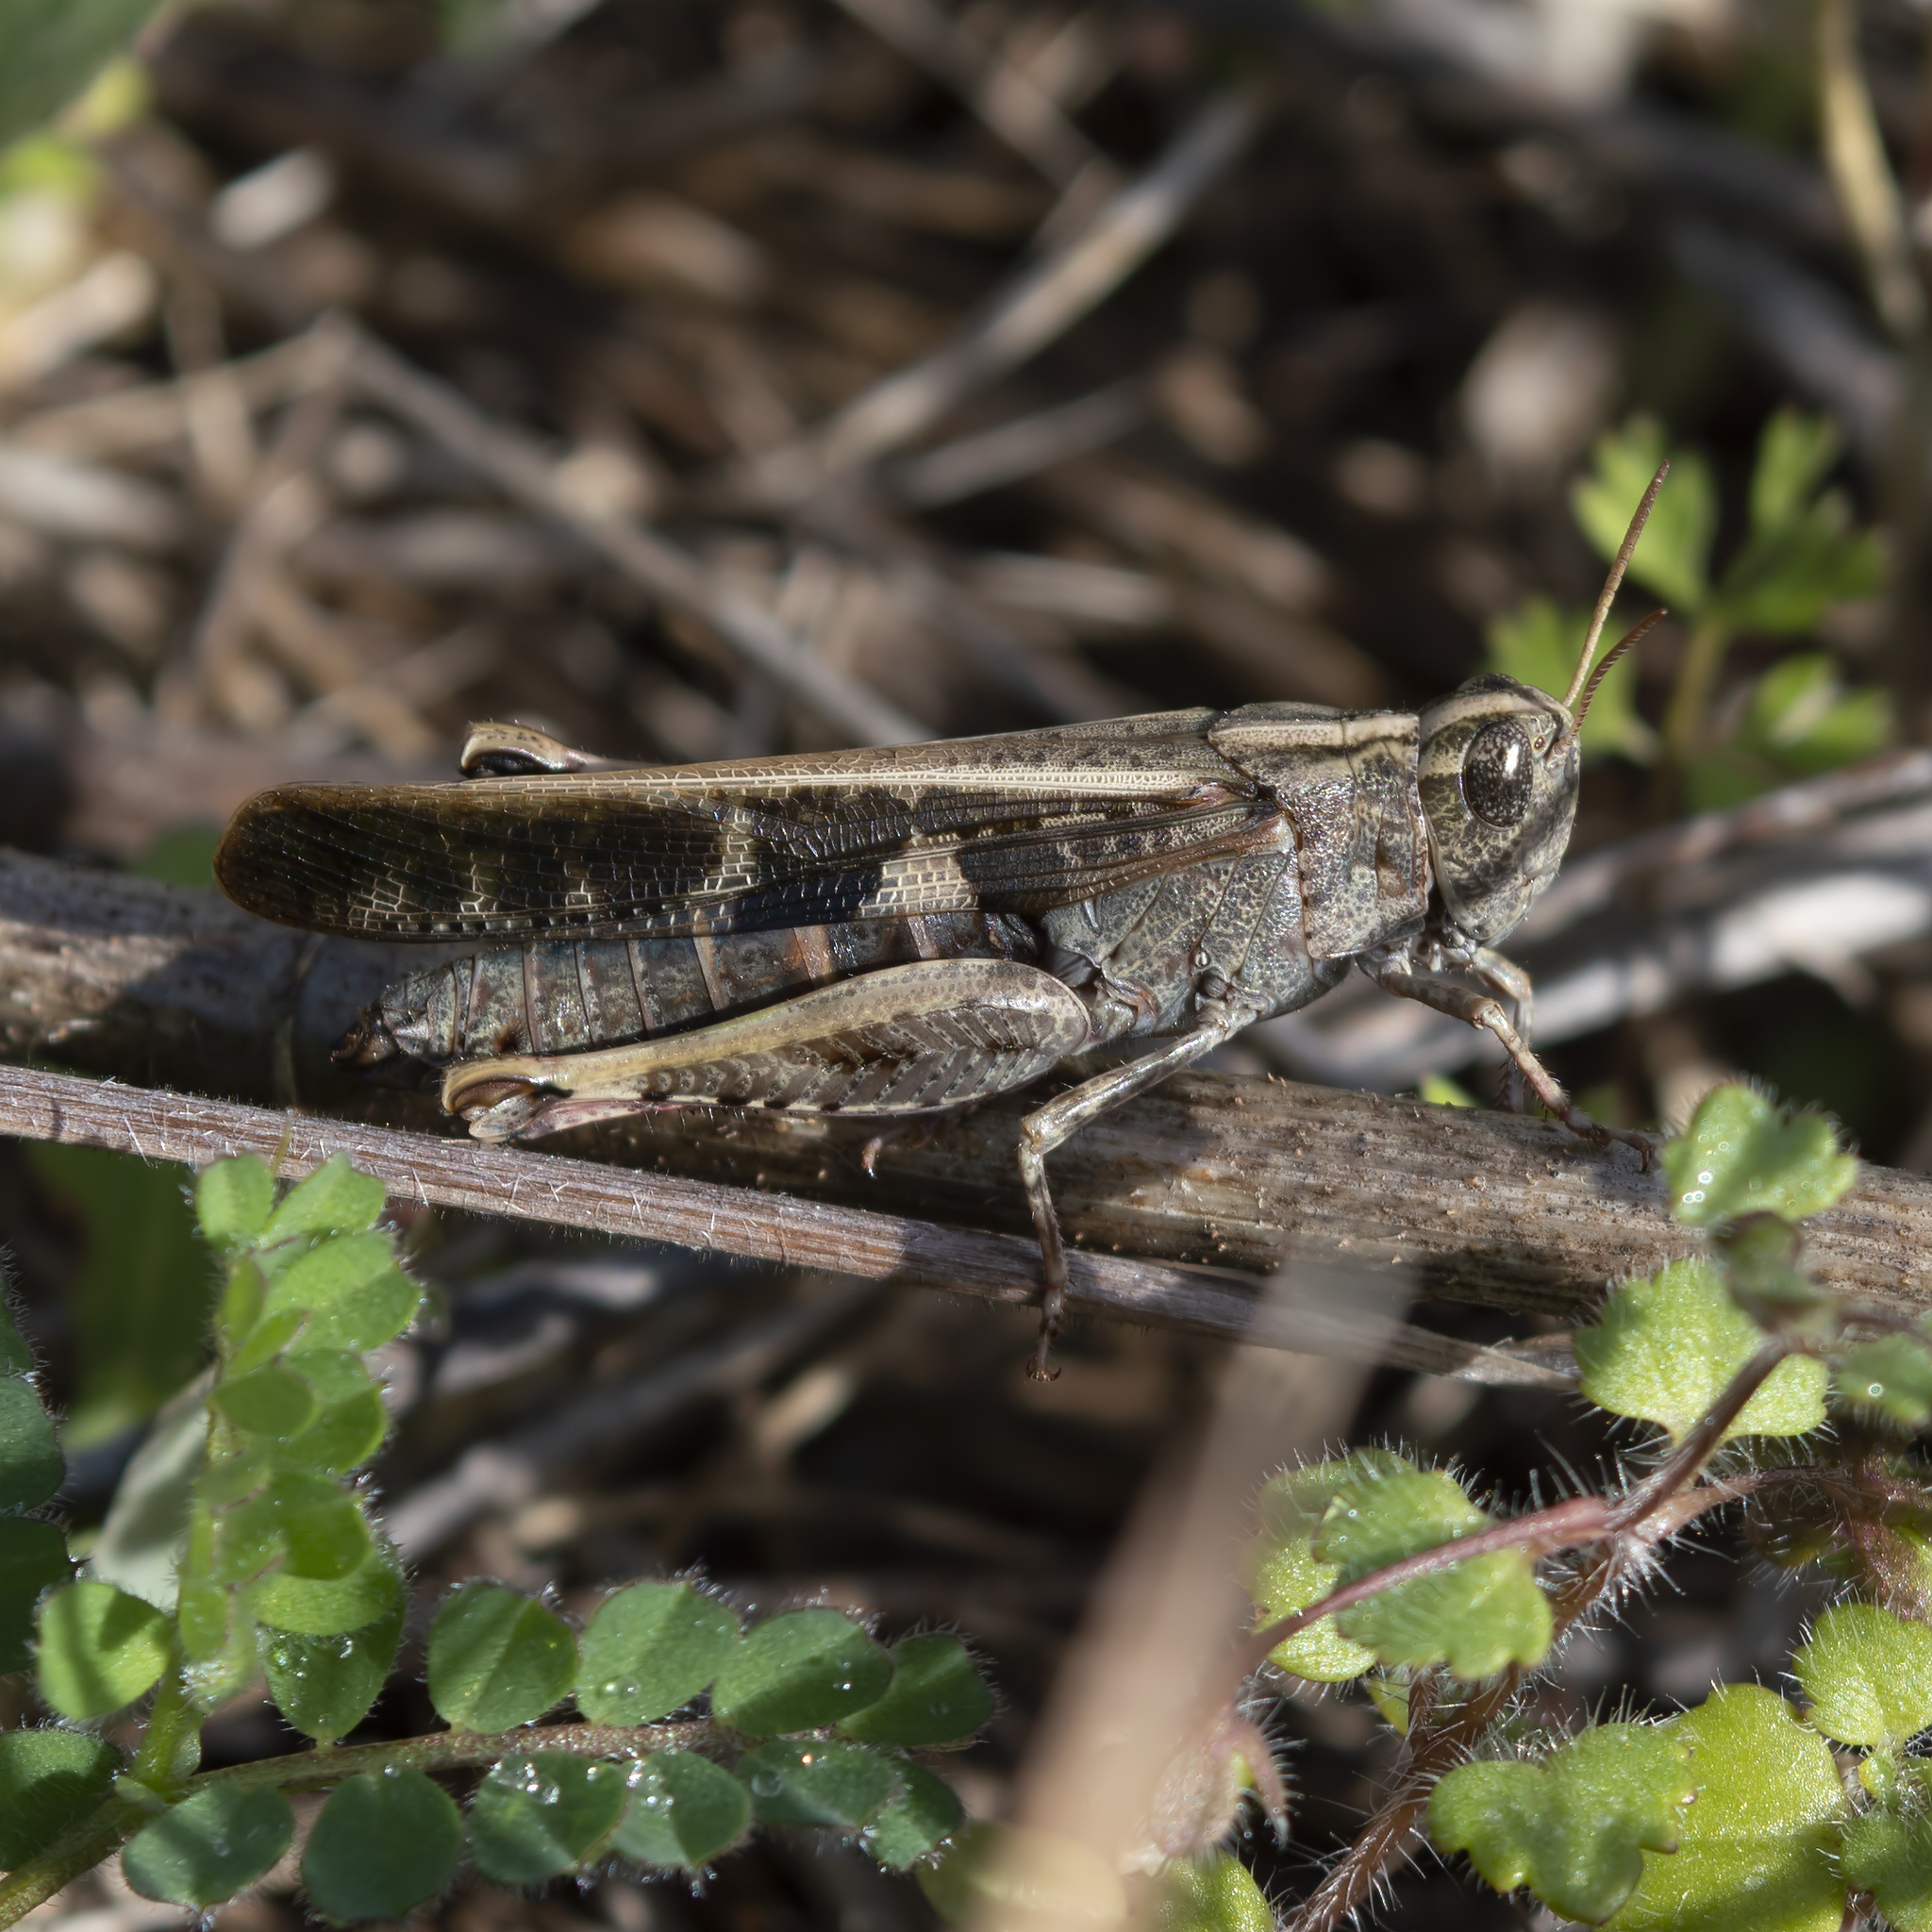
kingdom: Animalia
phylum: Arthropoda
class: Insecta
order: Orthoptera
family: Acrididae
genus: Aiolopus
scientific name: Aiolopus strepens
